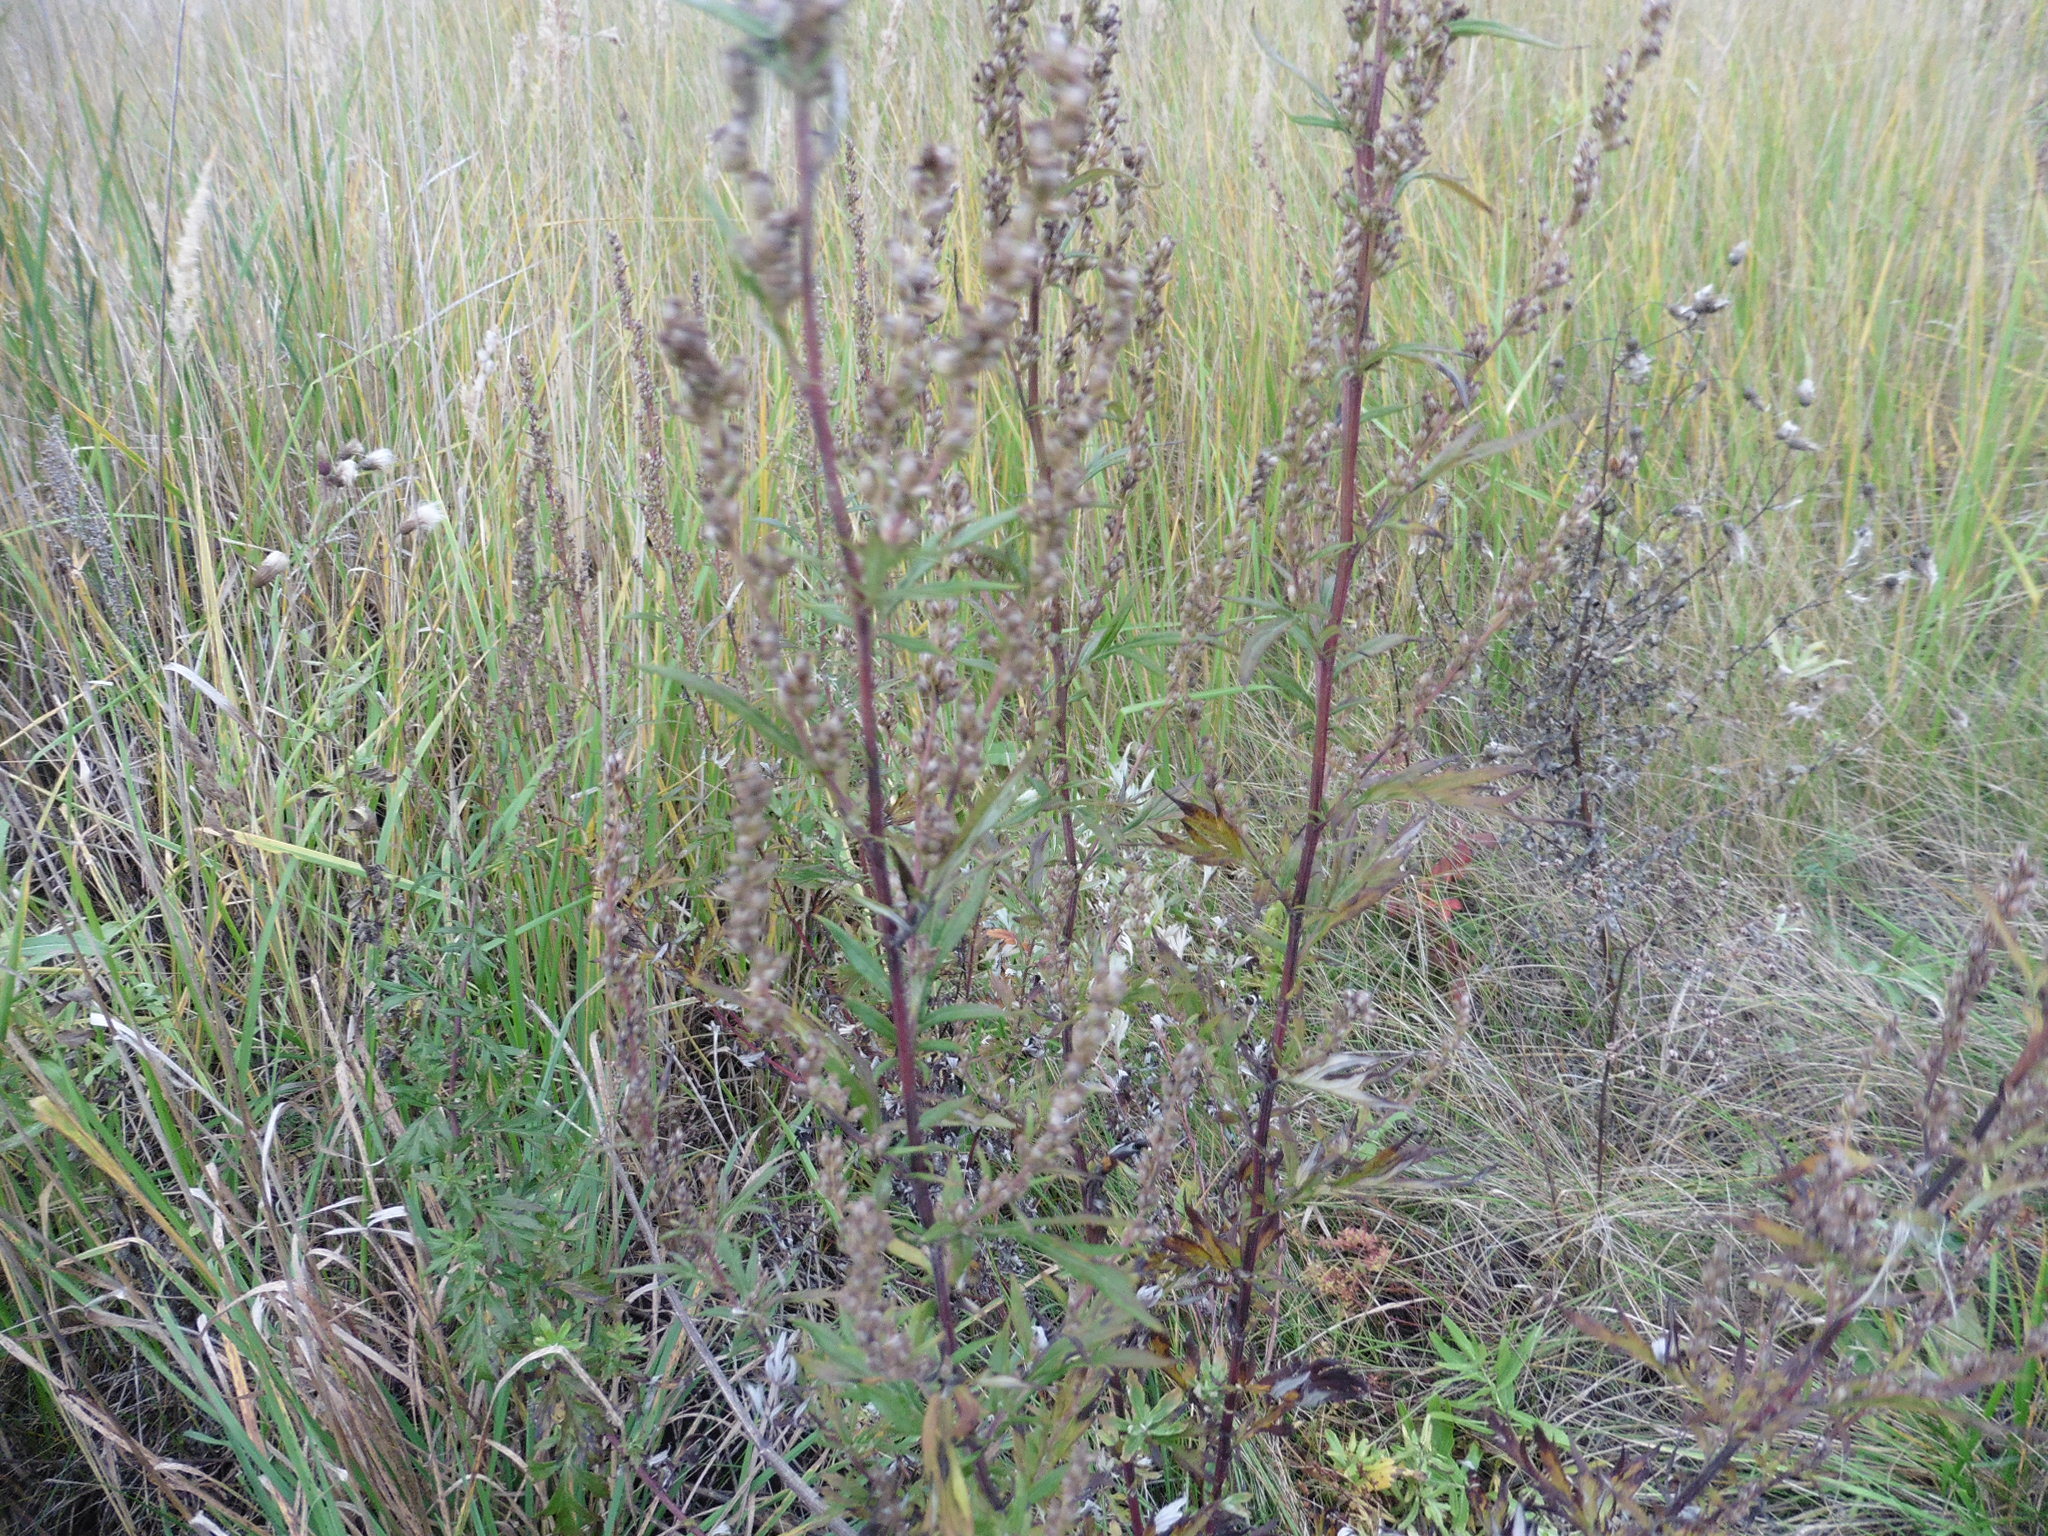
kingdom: Plantae
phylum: Tracheophyta
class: Magnoliopsida
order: Asterales
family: Asteraceae
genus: Artemisia
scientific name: Artemisia vulgaris
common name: Mugwort
